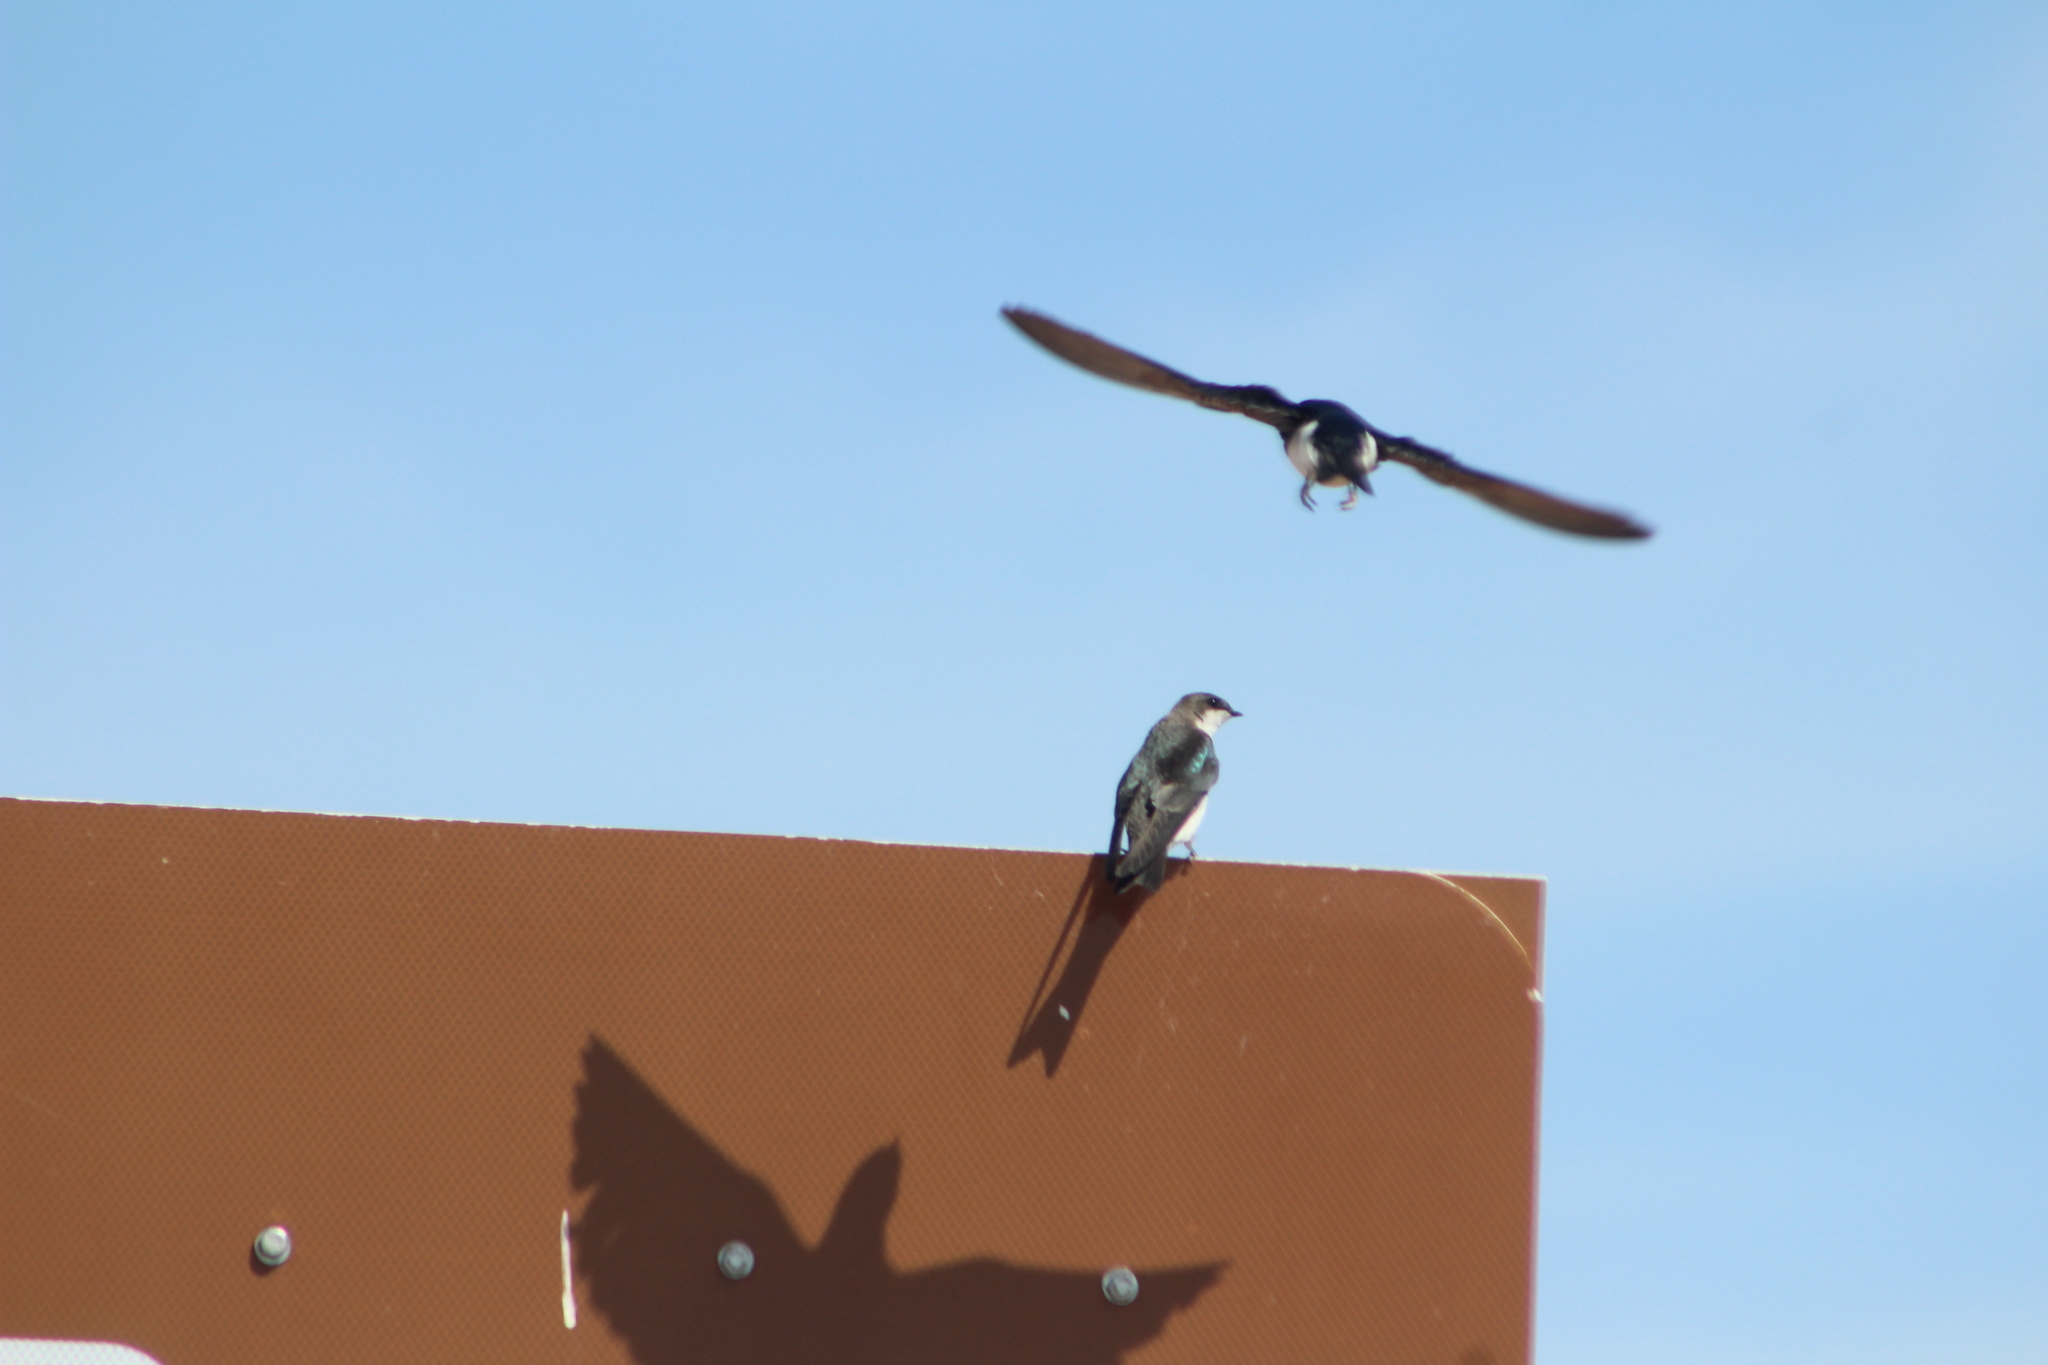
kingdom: Animalia
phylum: Chordata
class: Aves
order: Passeriformes
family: Hirundinidae
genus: Tachycineta
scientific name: Tachycineta bicolor
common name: Tree swallow
